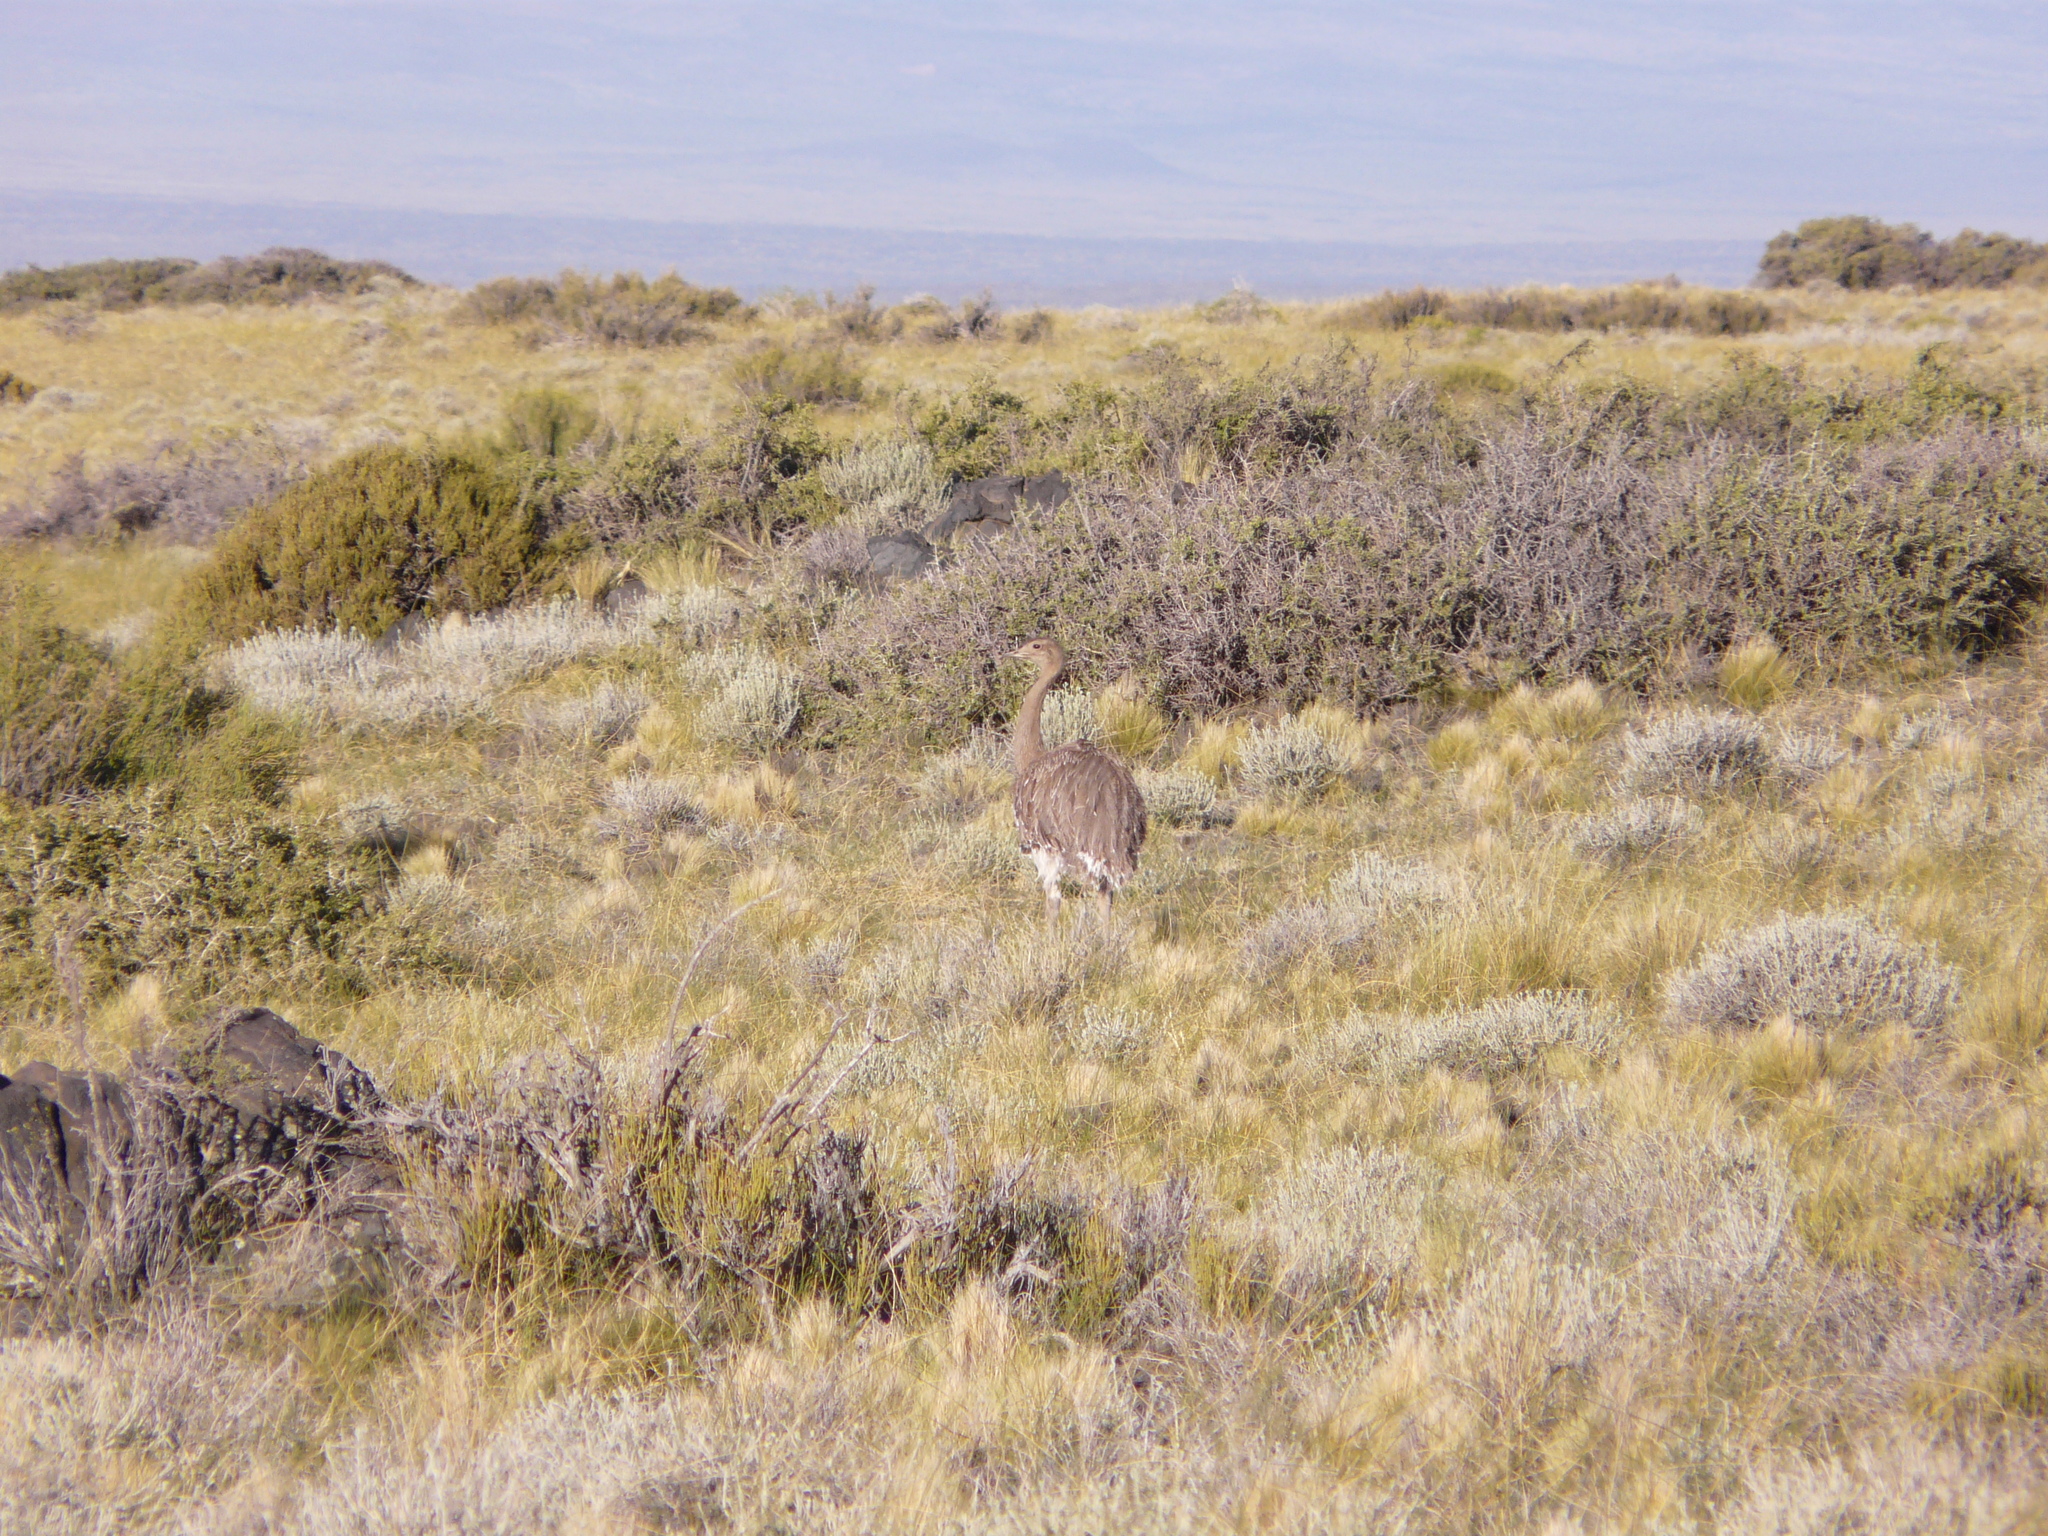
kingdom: Animalia
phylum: Chordata
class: Aves
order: Rheiformes
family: Rheidae
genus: Rhea
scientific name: Rhea pennata
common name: Lesser rhea
